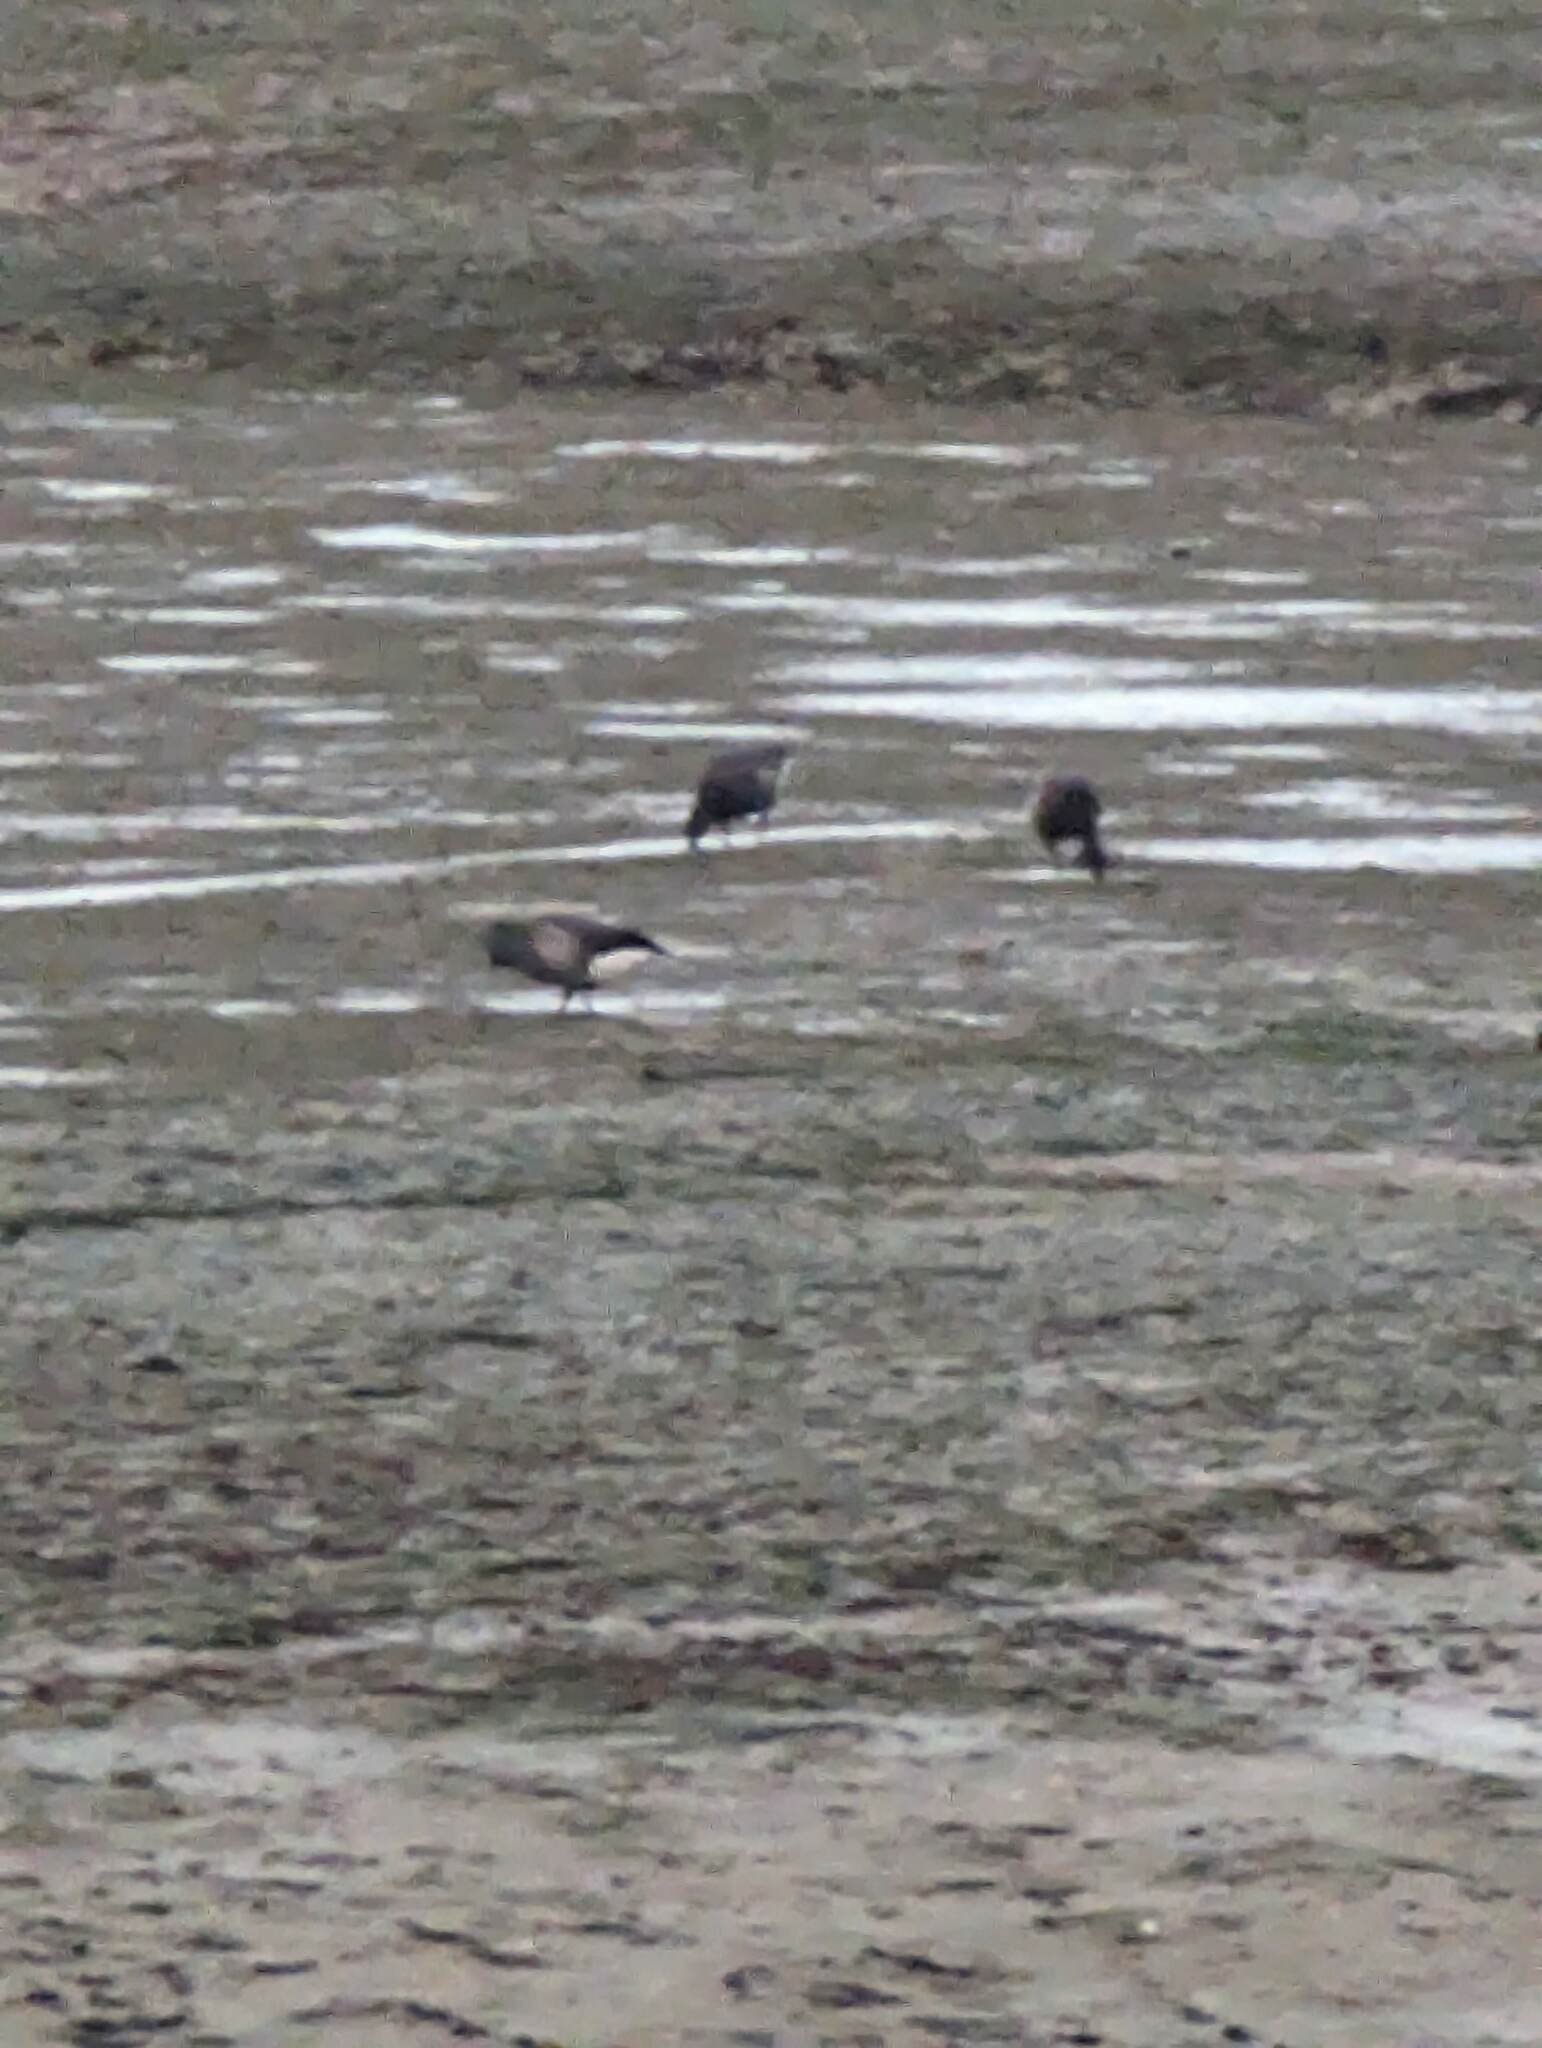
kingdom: Animalia
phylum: Chordata
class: Aves
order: Anseriformes
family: Anatidae
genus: Branta
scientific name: Branta bernicla
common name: Brant goose
